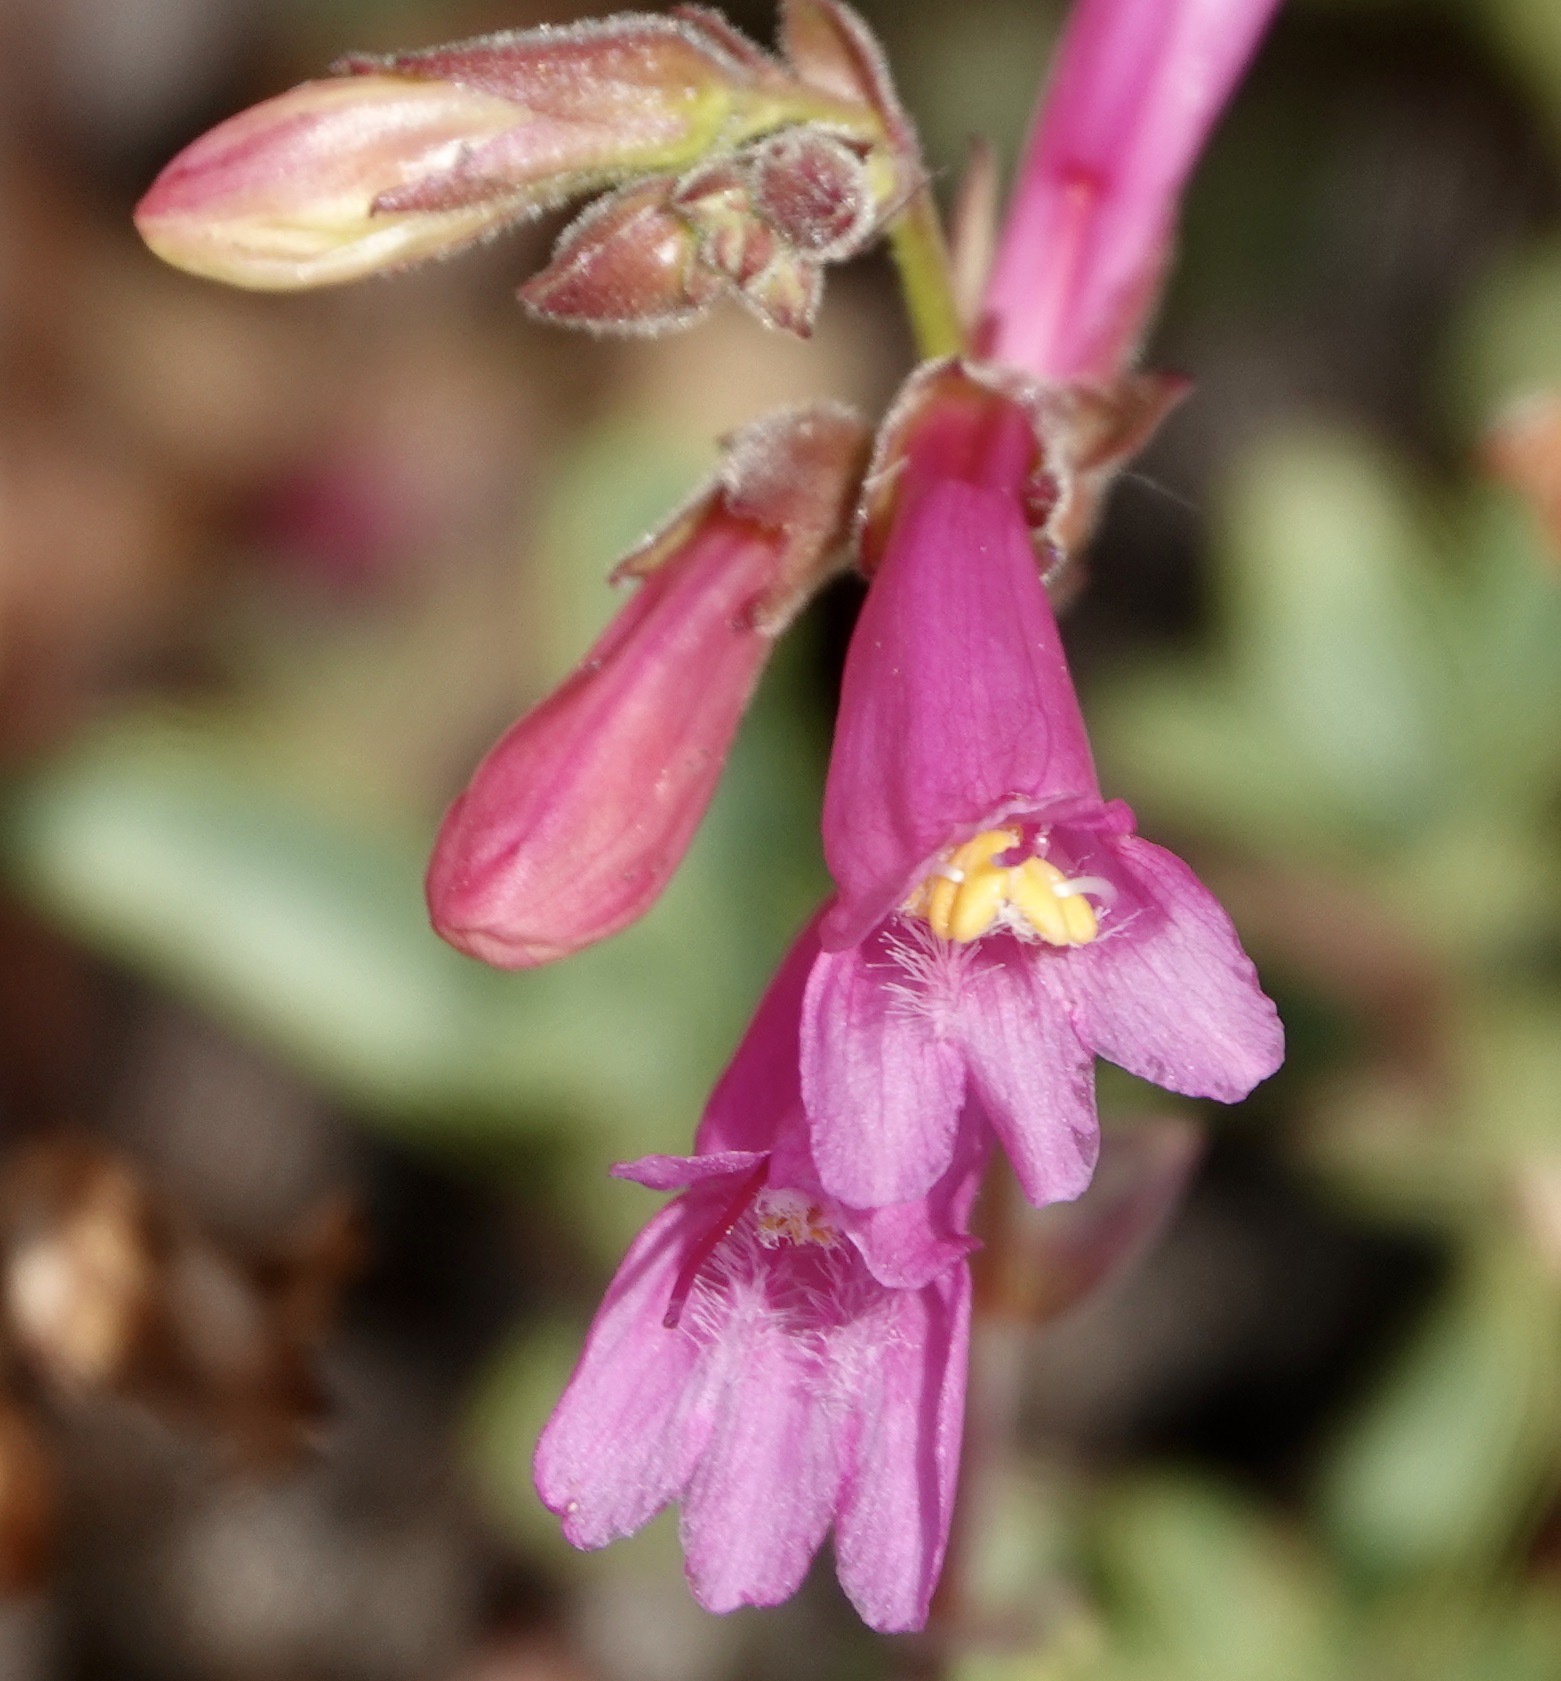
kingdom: Plantae
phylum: Tracheophyta
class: Magnoliopsida
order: Lamiales
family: Plantaginaceae
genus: Penstemon
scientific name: Penstemon newberryi
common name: Mountain-pride
